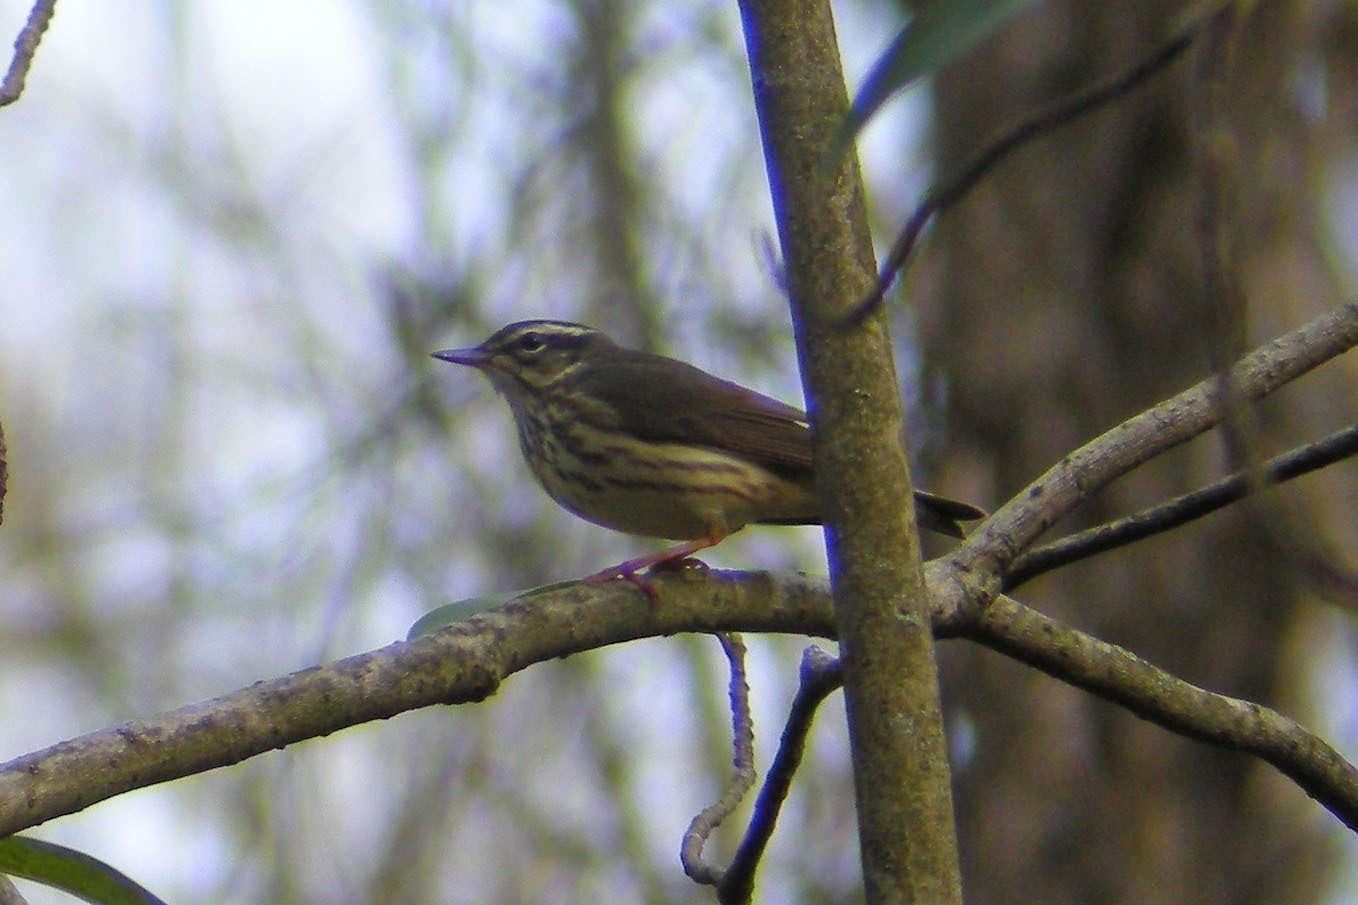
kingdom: Animalia
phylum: Chordata
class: Aves
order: Passeriformes
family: Parulidae
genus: Parkesia
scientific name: Parkesia motacilla
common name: Louisiana waterthrush
